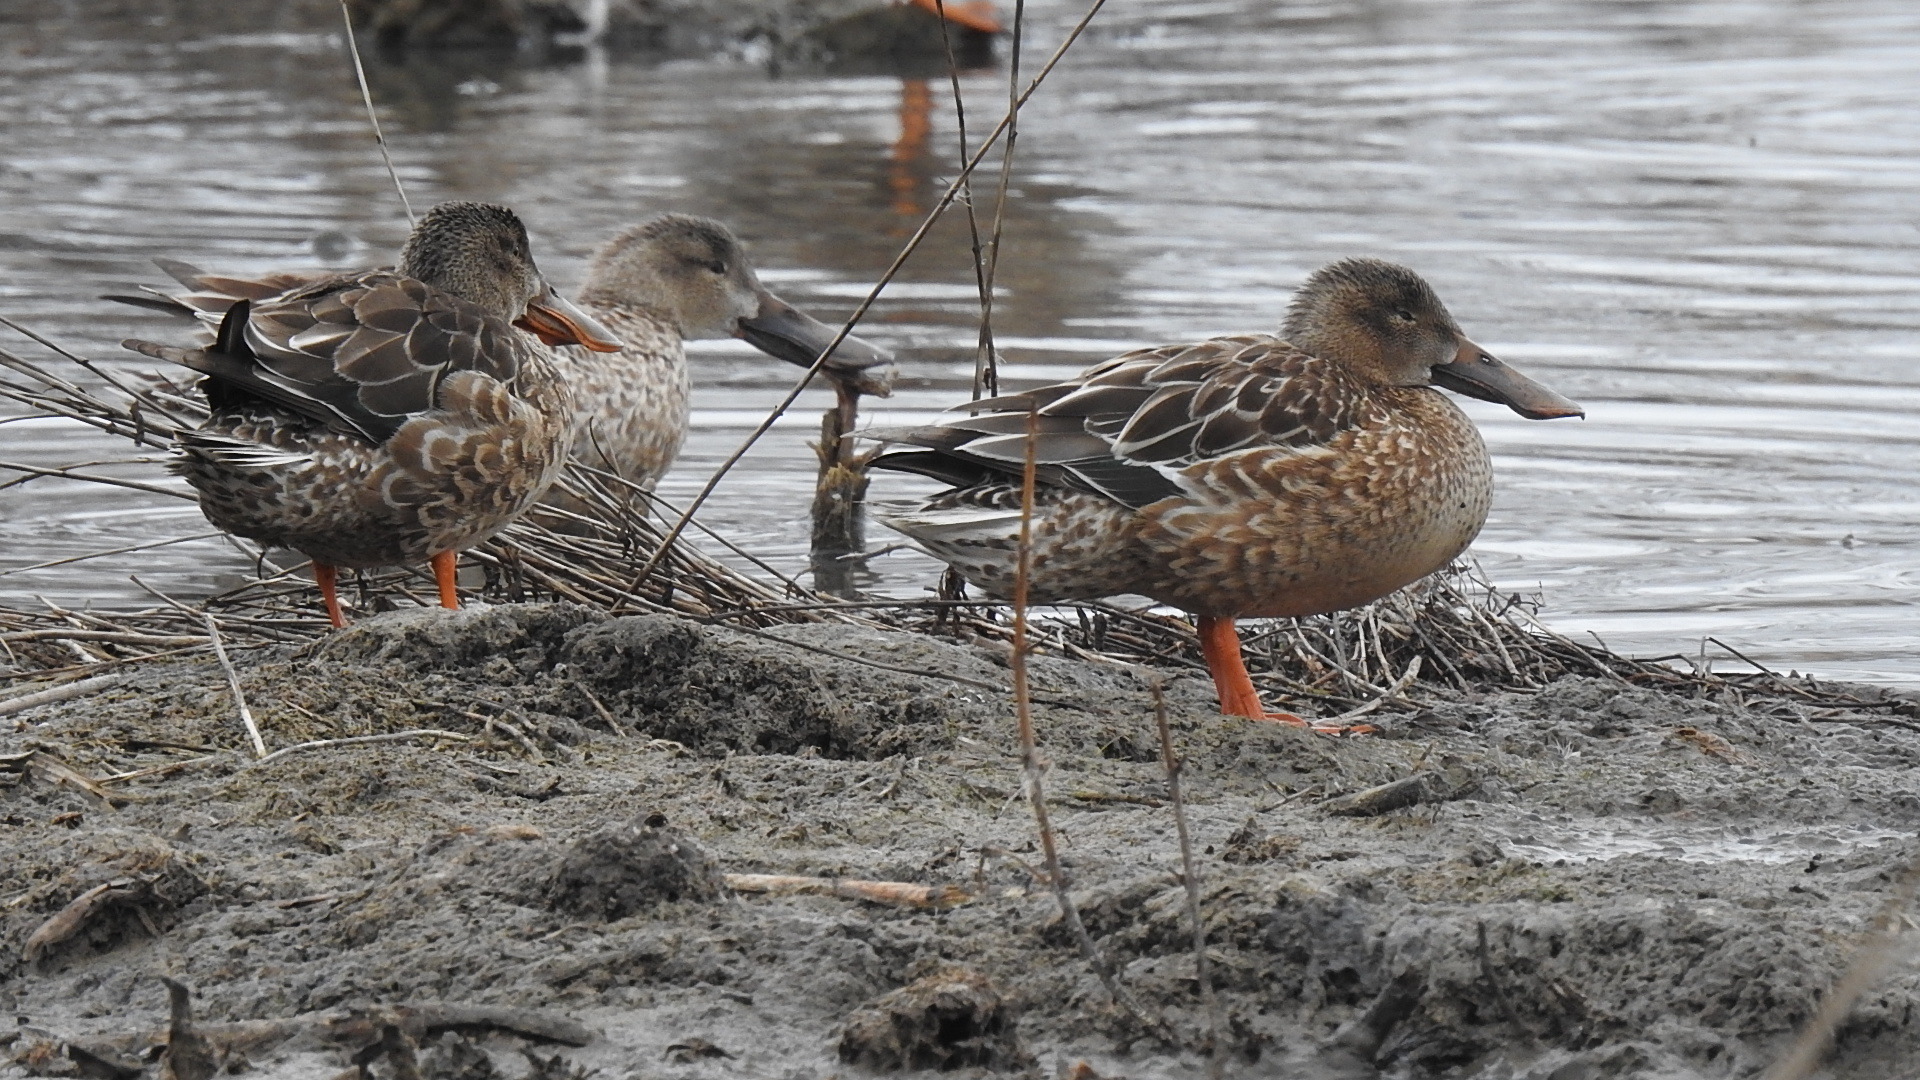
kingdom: Animalia
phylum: Chordata
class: Aves
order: Anseriformes
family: Anatidae
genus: Spatula
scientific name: Spatula clypeata
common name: Northern shoveler
